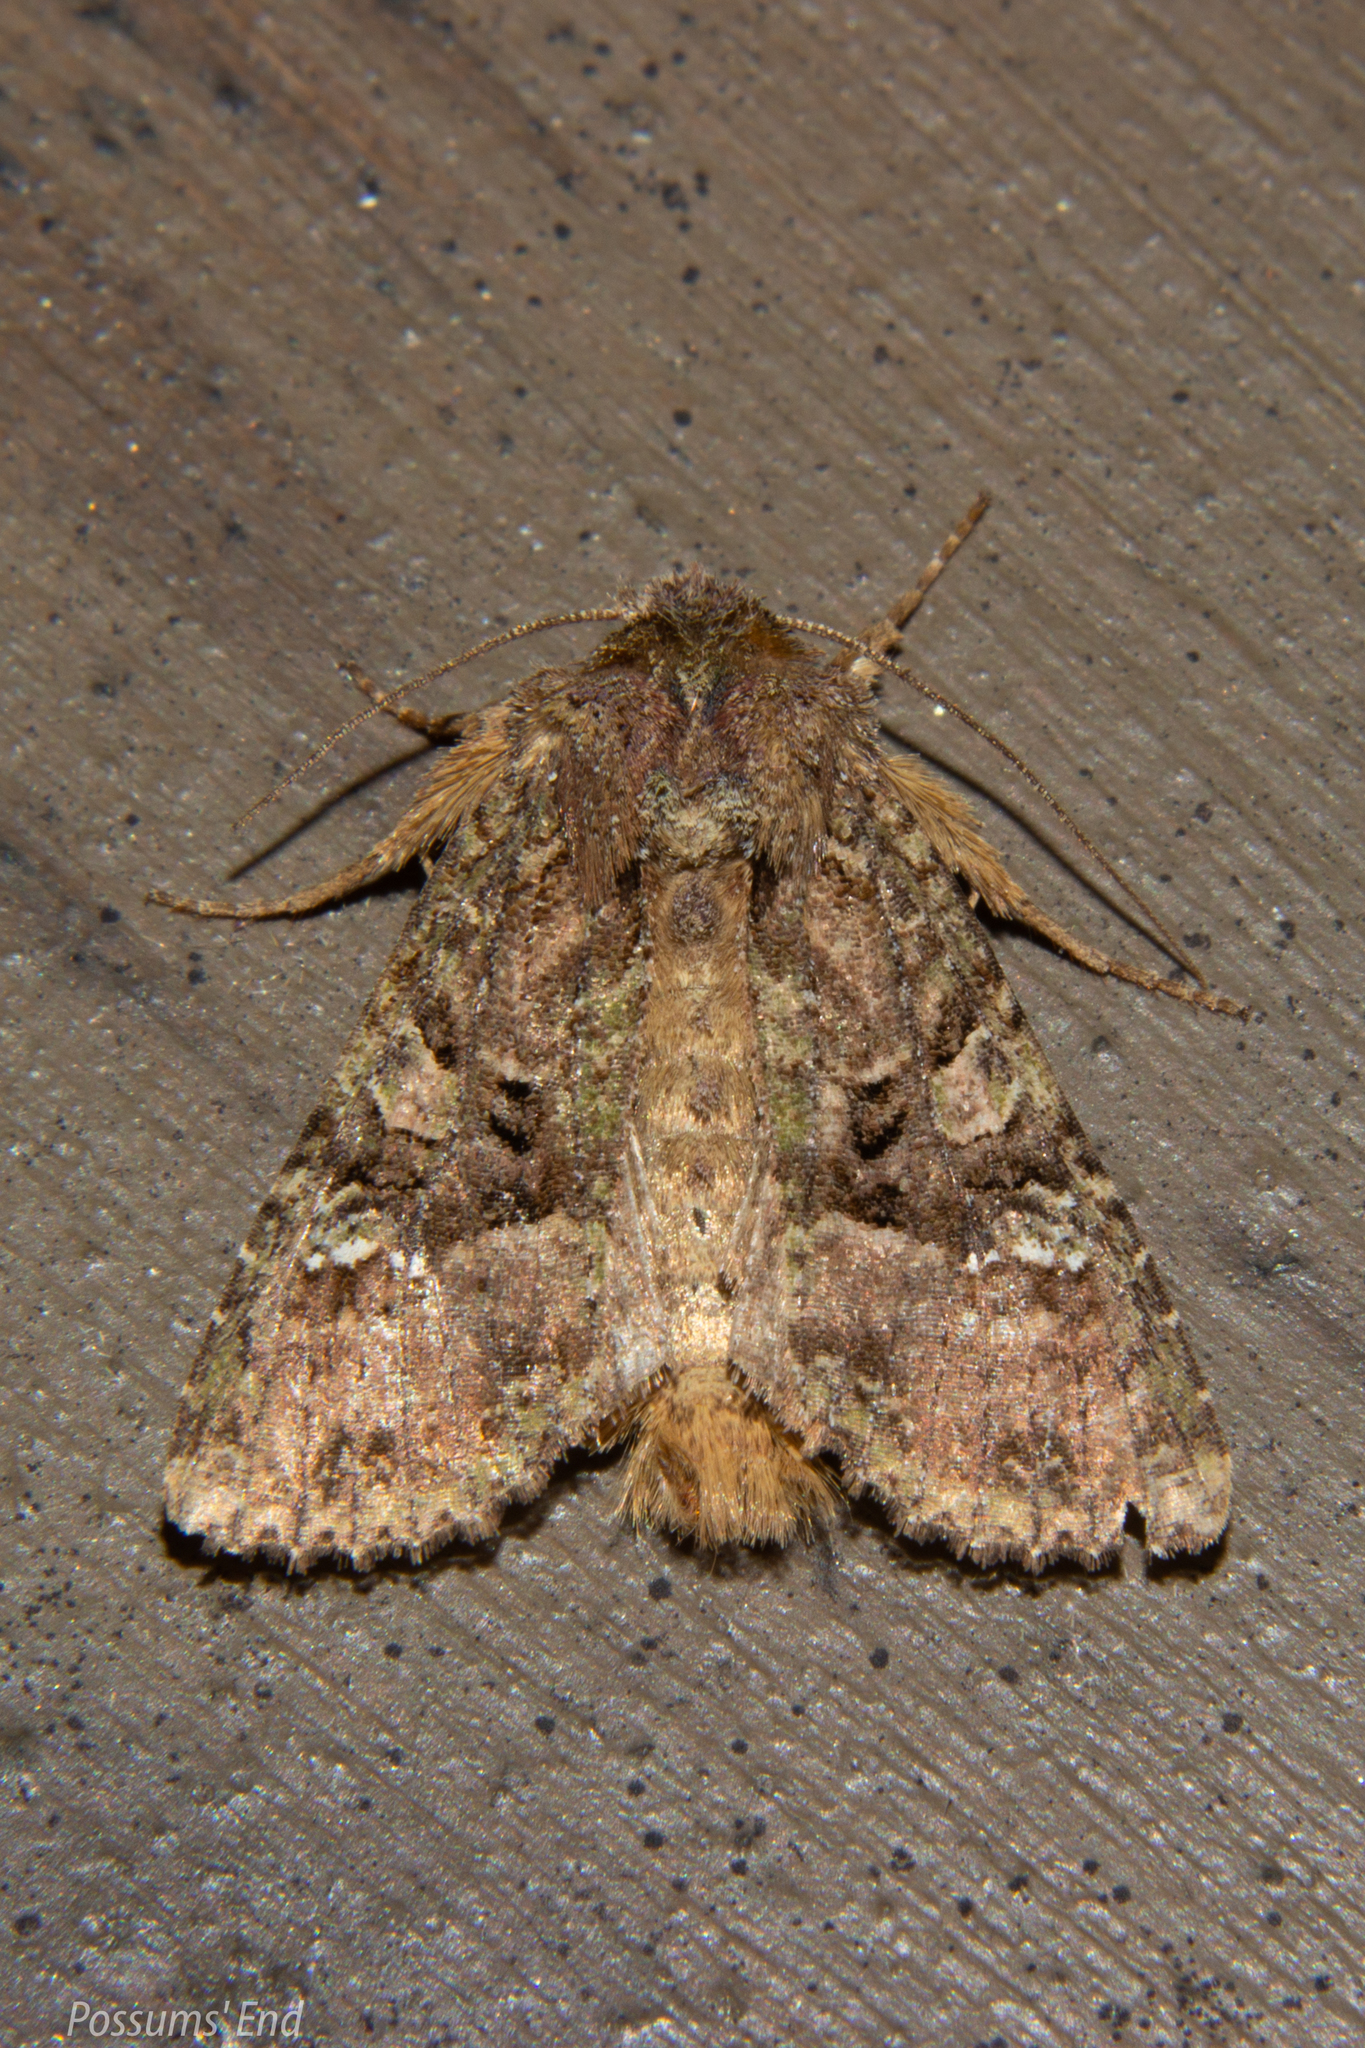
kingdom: Animalia
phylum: Arthropoda
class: Insecta
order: Lepidoptera
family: Noctuidae
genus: Meterana
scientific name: Meterana ochthistis
